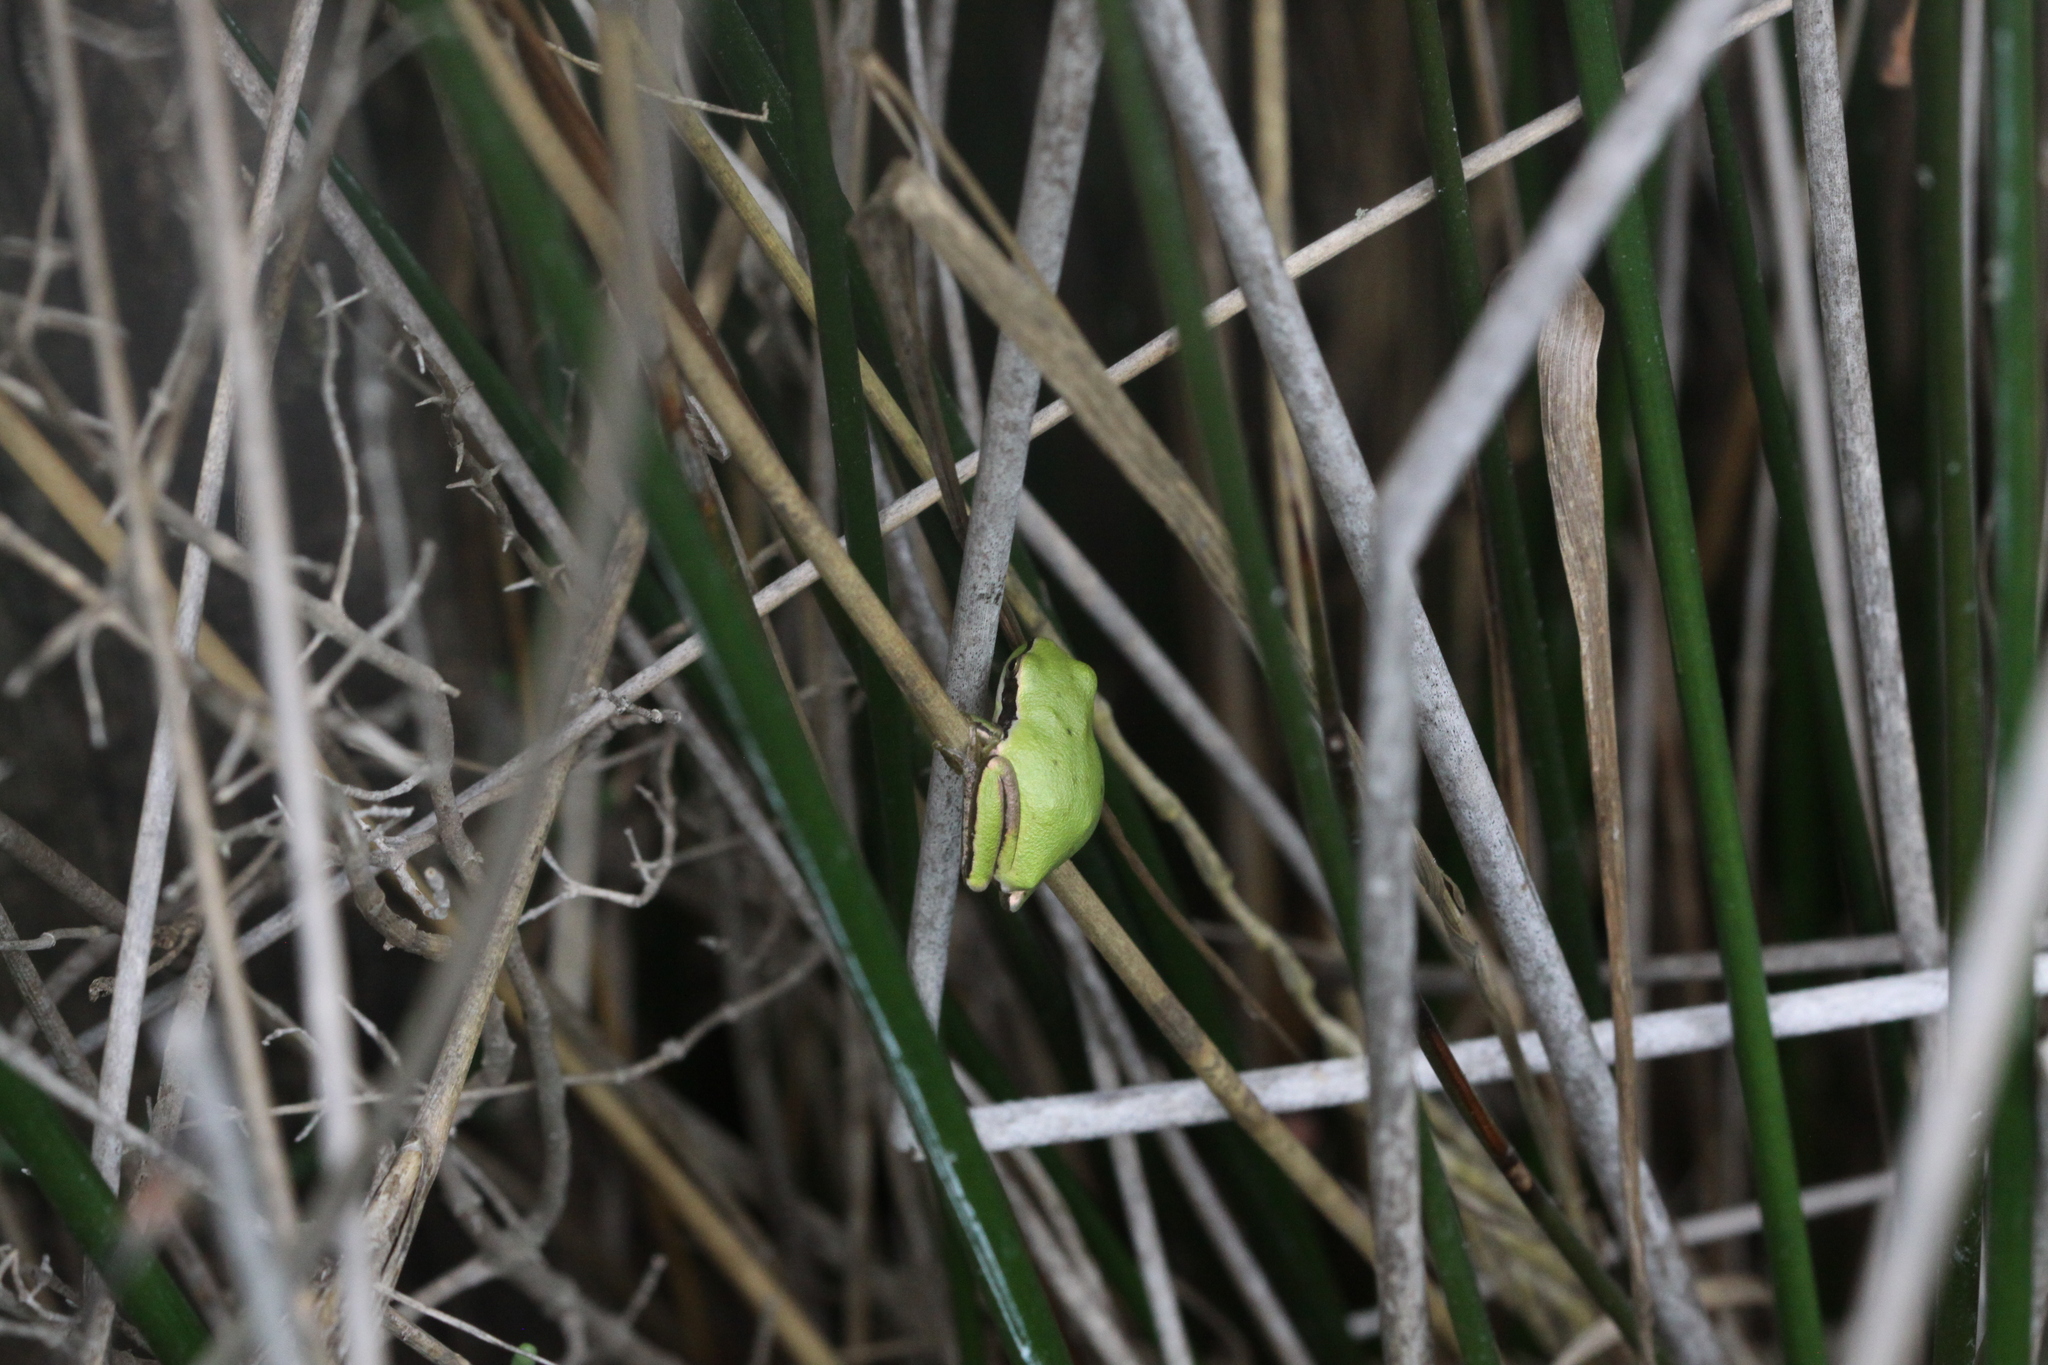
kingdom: Animalia
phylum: Chordata
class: Amphibia
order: Anura
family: Hylidae
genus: Hyla
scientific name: Hyla meridionalis
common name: Stripeless tree frog
